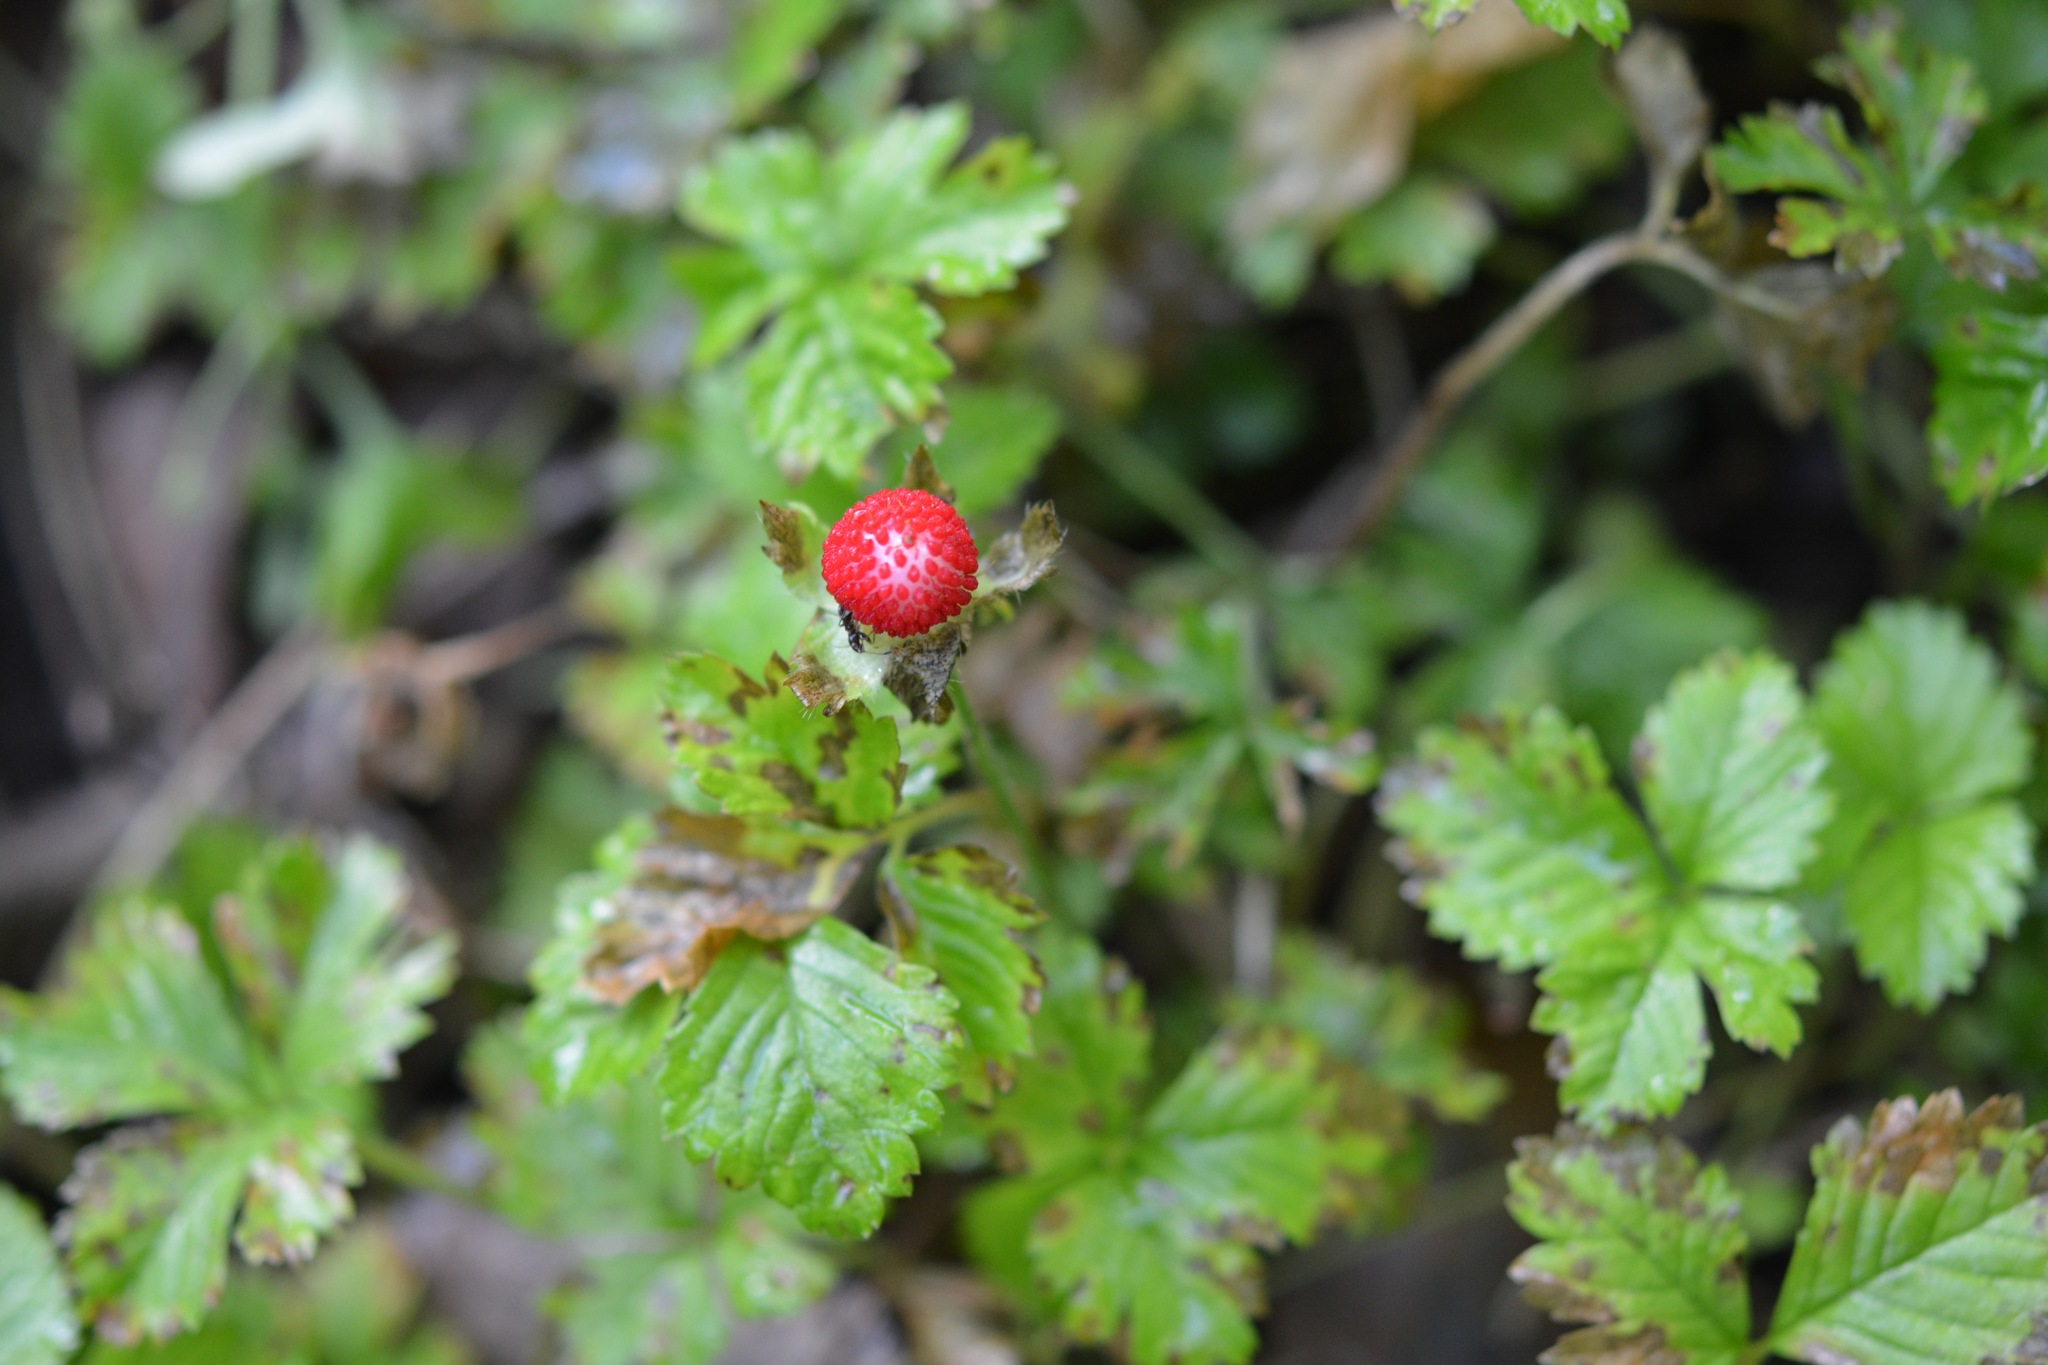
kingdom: Plantae
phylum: Tracheophyta
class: Magnoliopsida
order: Rosales
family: Rosaceae
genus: Potentilla
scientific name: Potentilla indica
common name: Yellow-flowered strawberry
